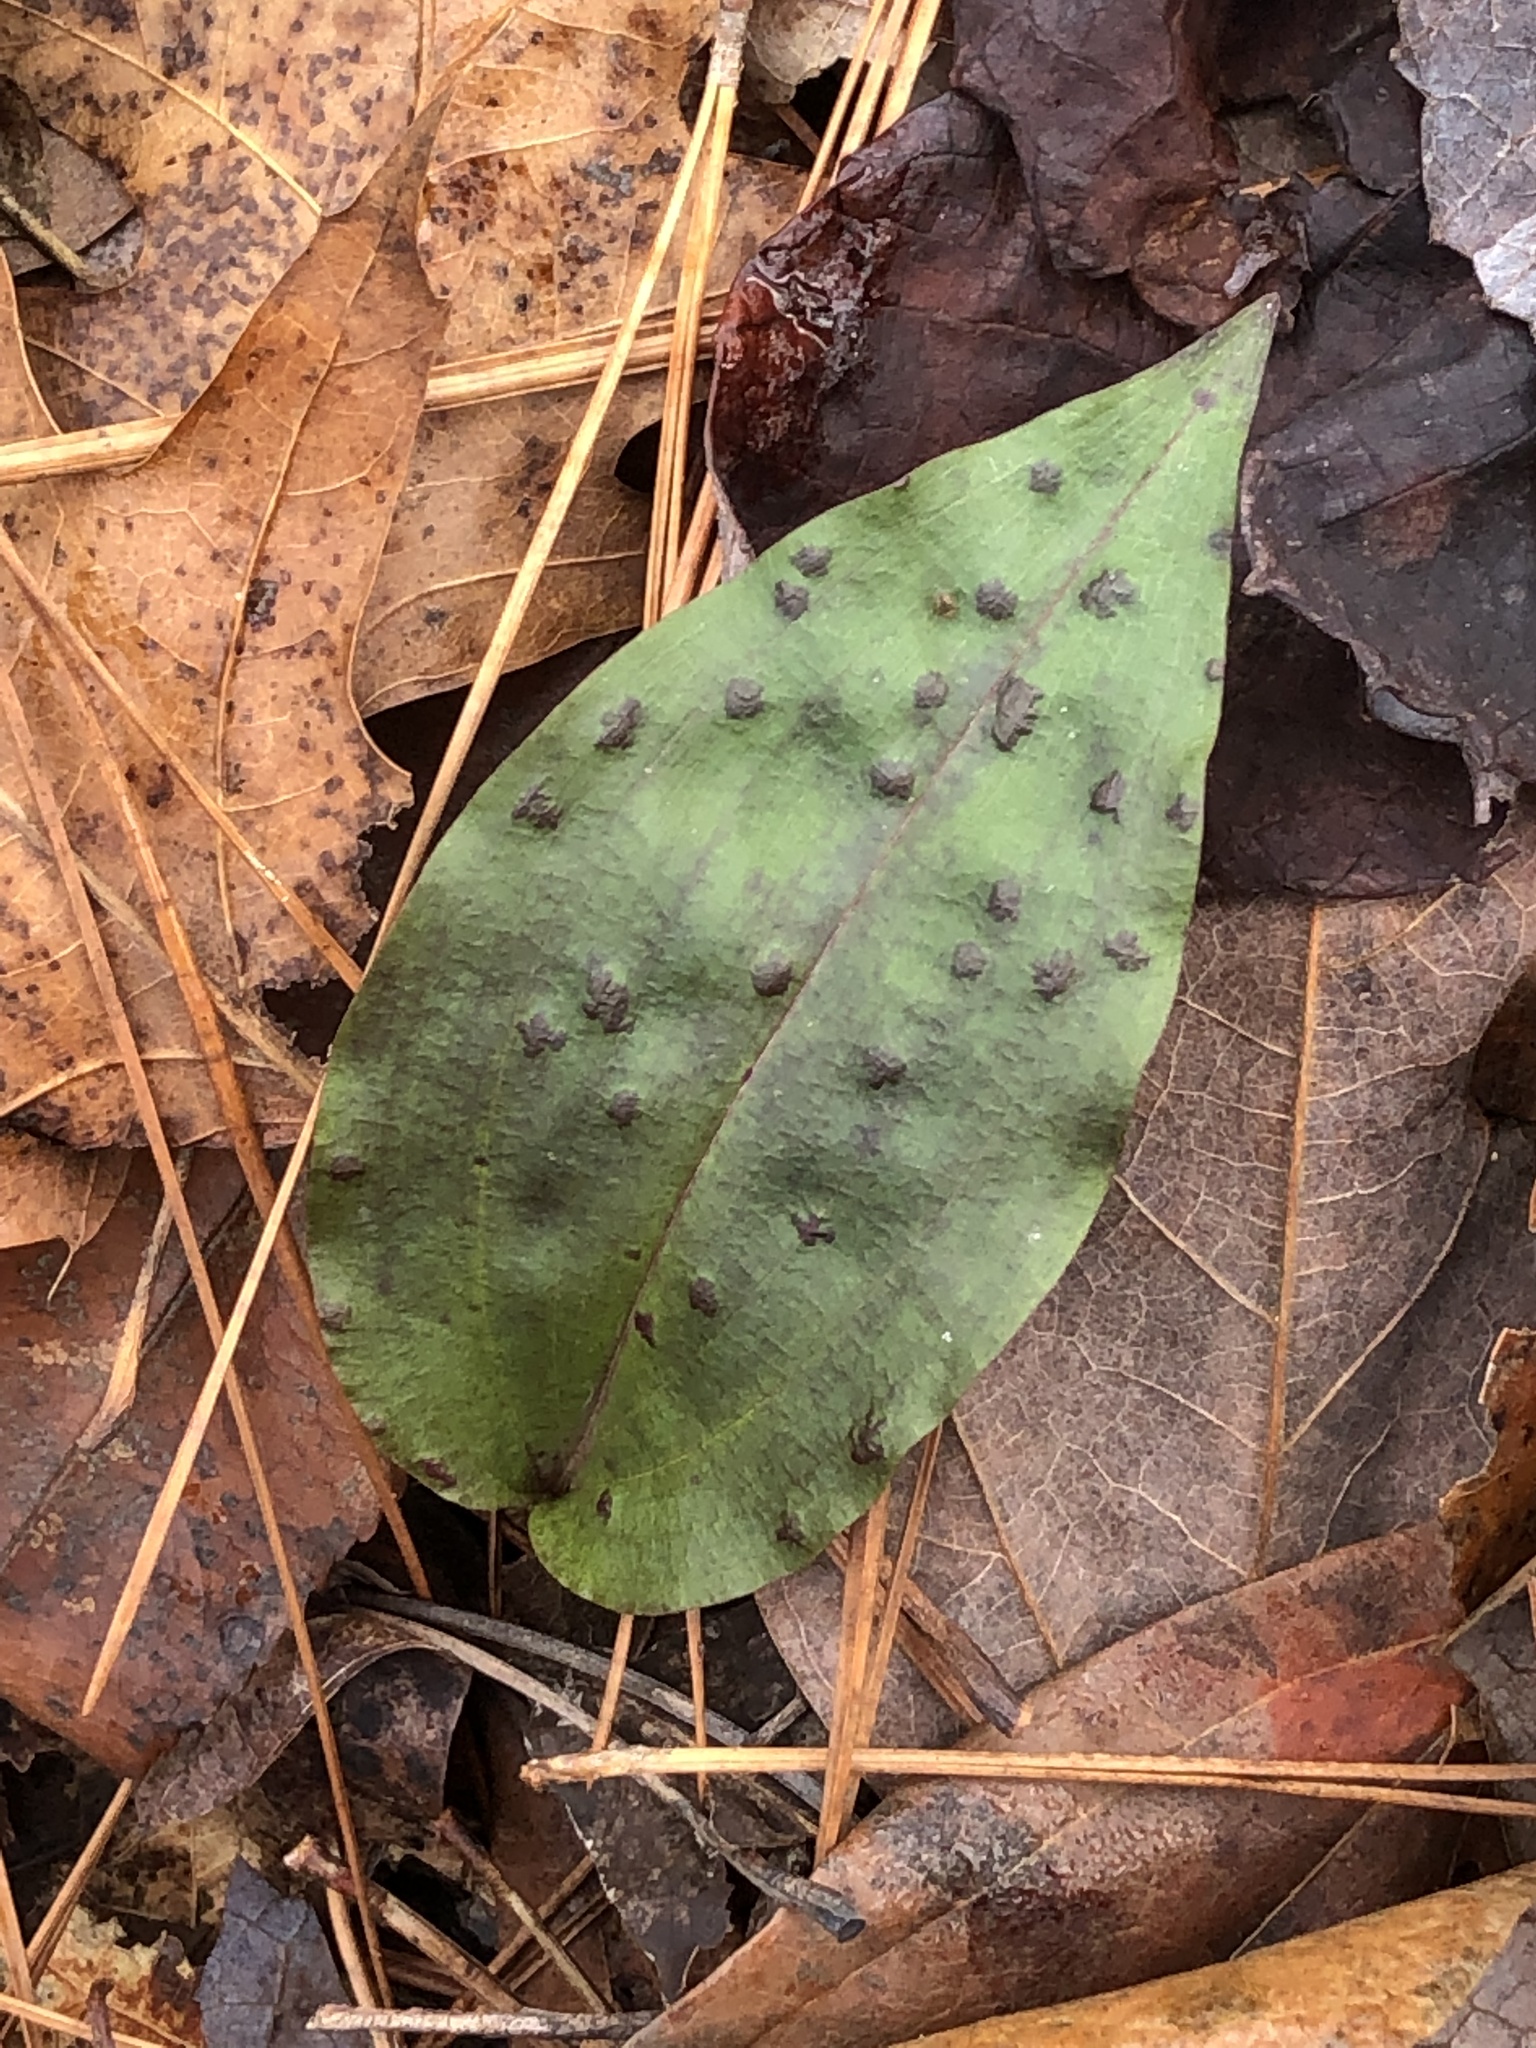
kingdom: Plantae
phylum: Tracheophyta
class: Liliopsida
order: Asparagales
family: Orchidaceae
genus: Tipularia
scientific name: Tipularia discolor
